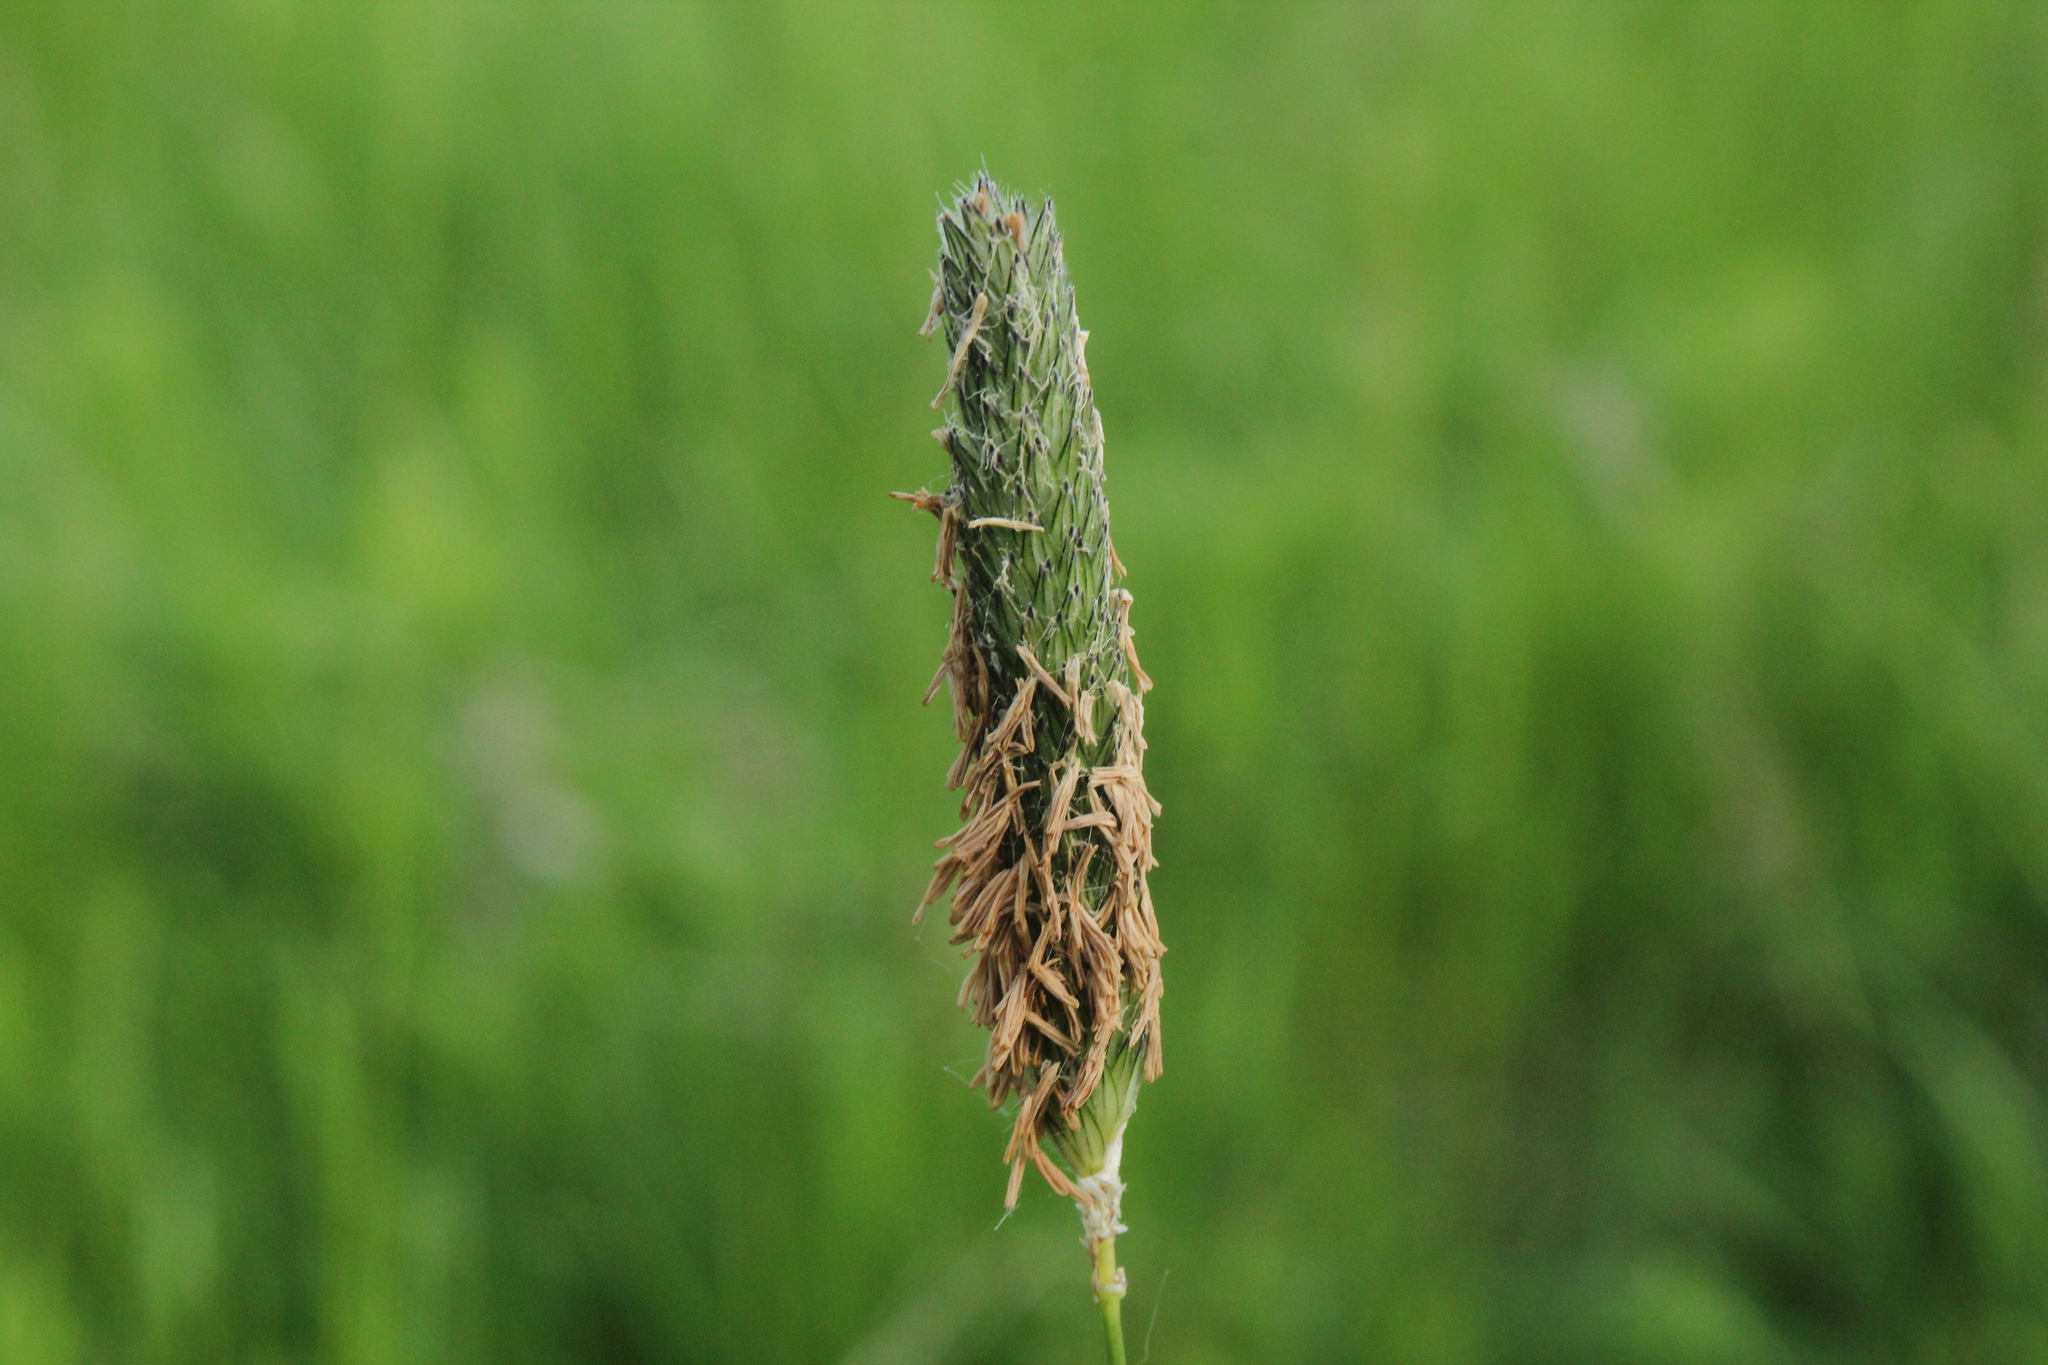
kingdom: Plantae
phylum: Tracheophyta
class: Liliopsida
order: Poales
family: Poaceae
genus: Alopecurus
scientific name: Alopecurus pratensis
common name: Meadow foxtail
